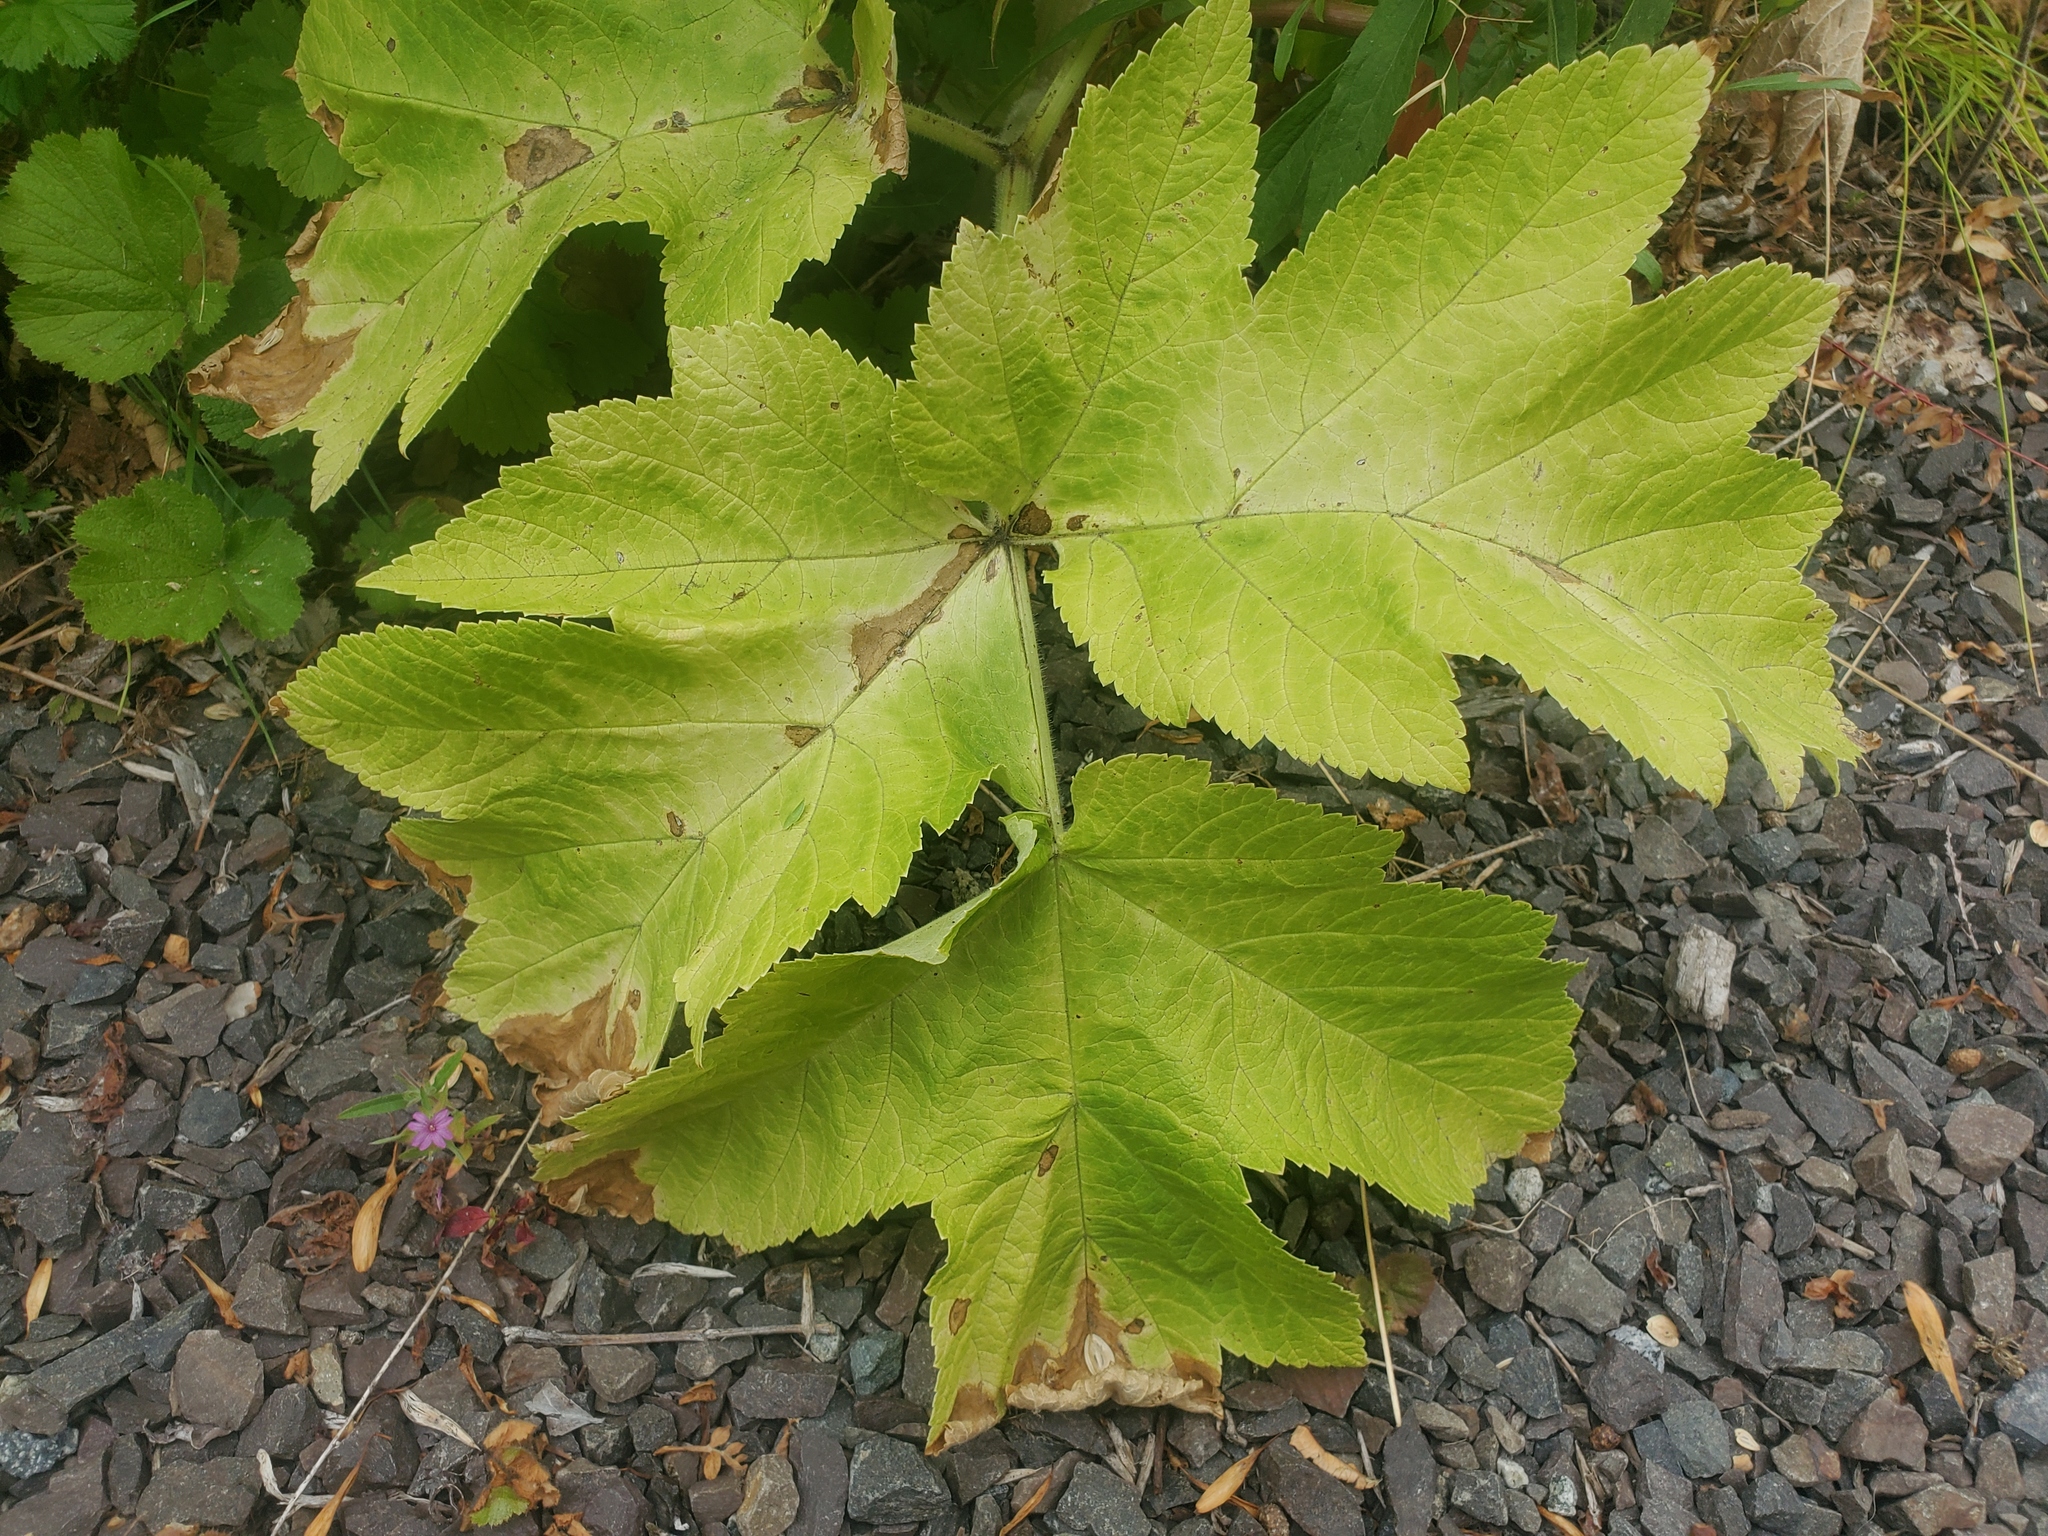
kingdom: Plantae
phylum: Tracheophyta
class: Magnoliopsida
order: Apiales
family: Apiaceae
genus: Heracleum
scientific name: Heracleum maximum
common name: American cow parsnip
